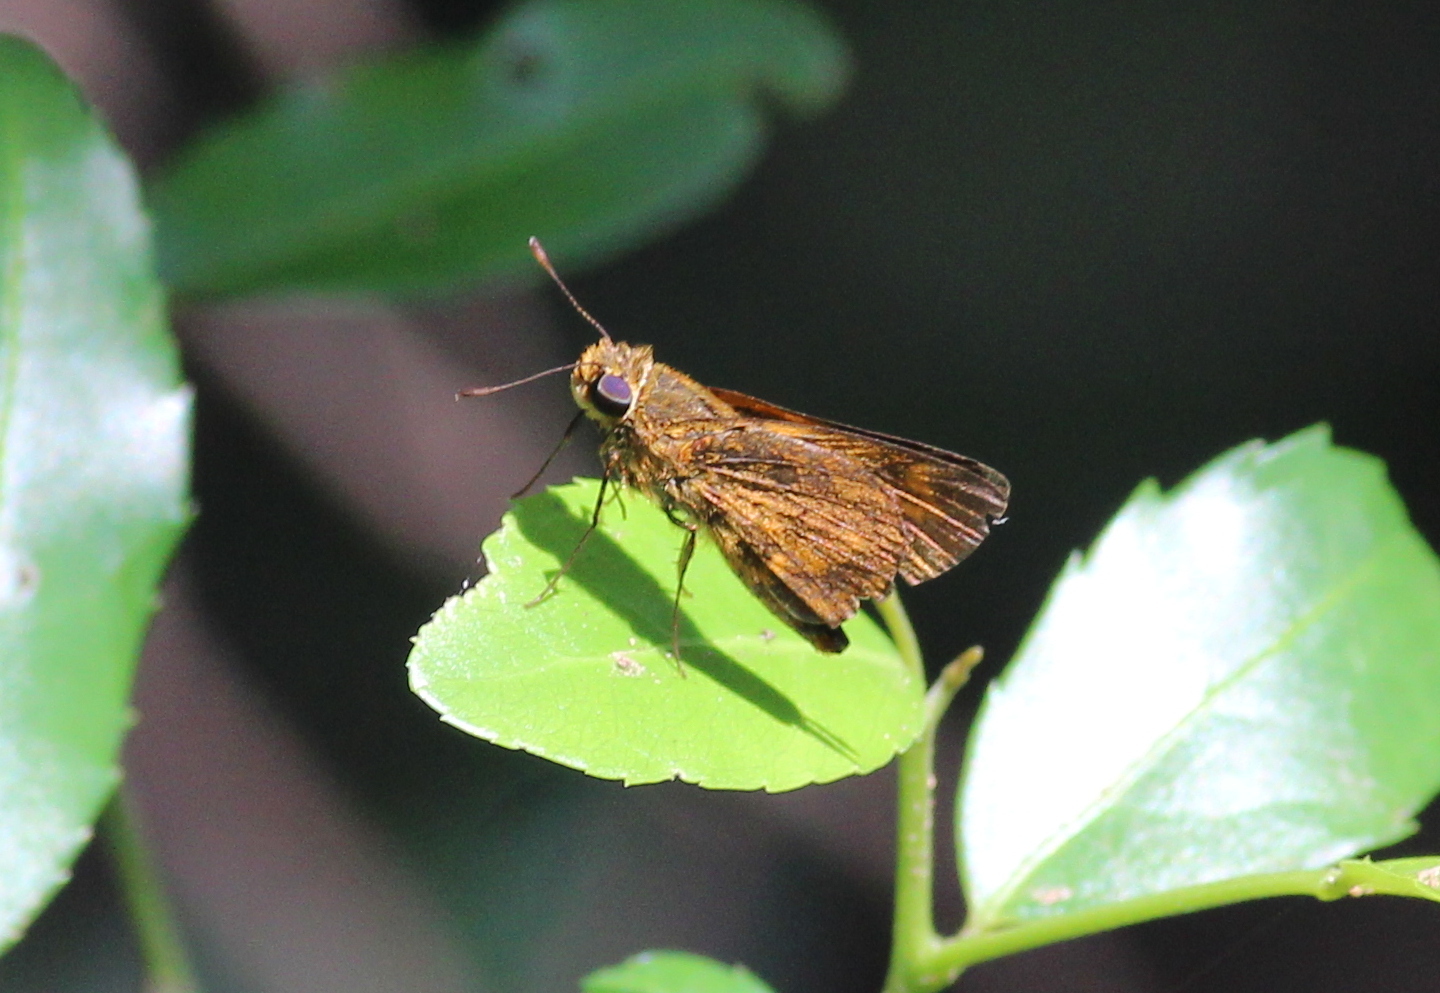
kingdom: Animalia
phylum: Arthropoda
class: Insecta
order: Lepidoptera
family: Hesperiidae
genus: Oriens
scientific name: Oriens goloides
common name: Smaller dartlet
